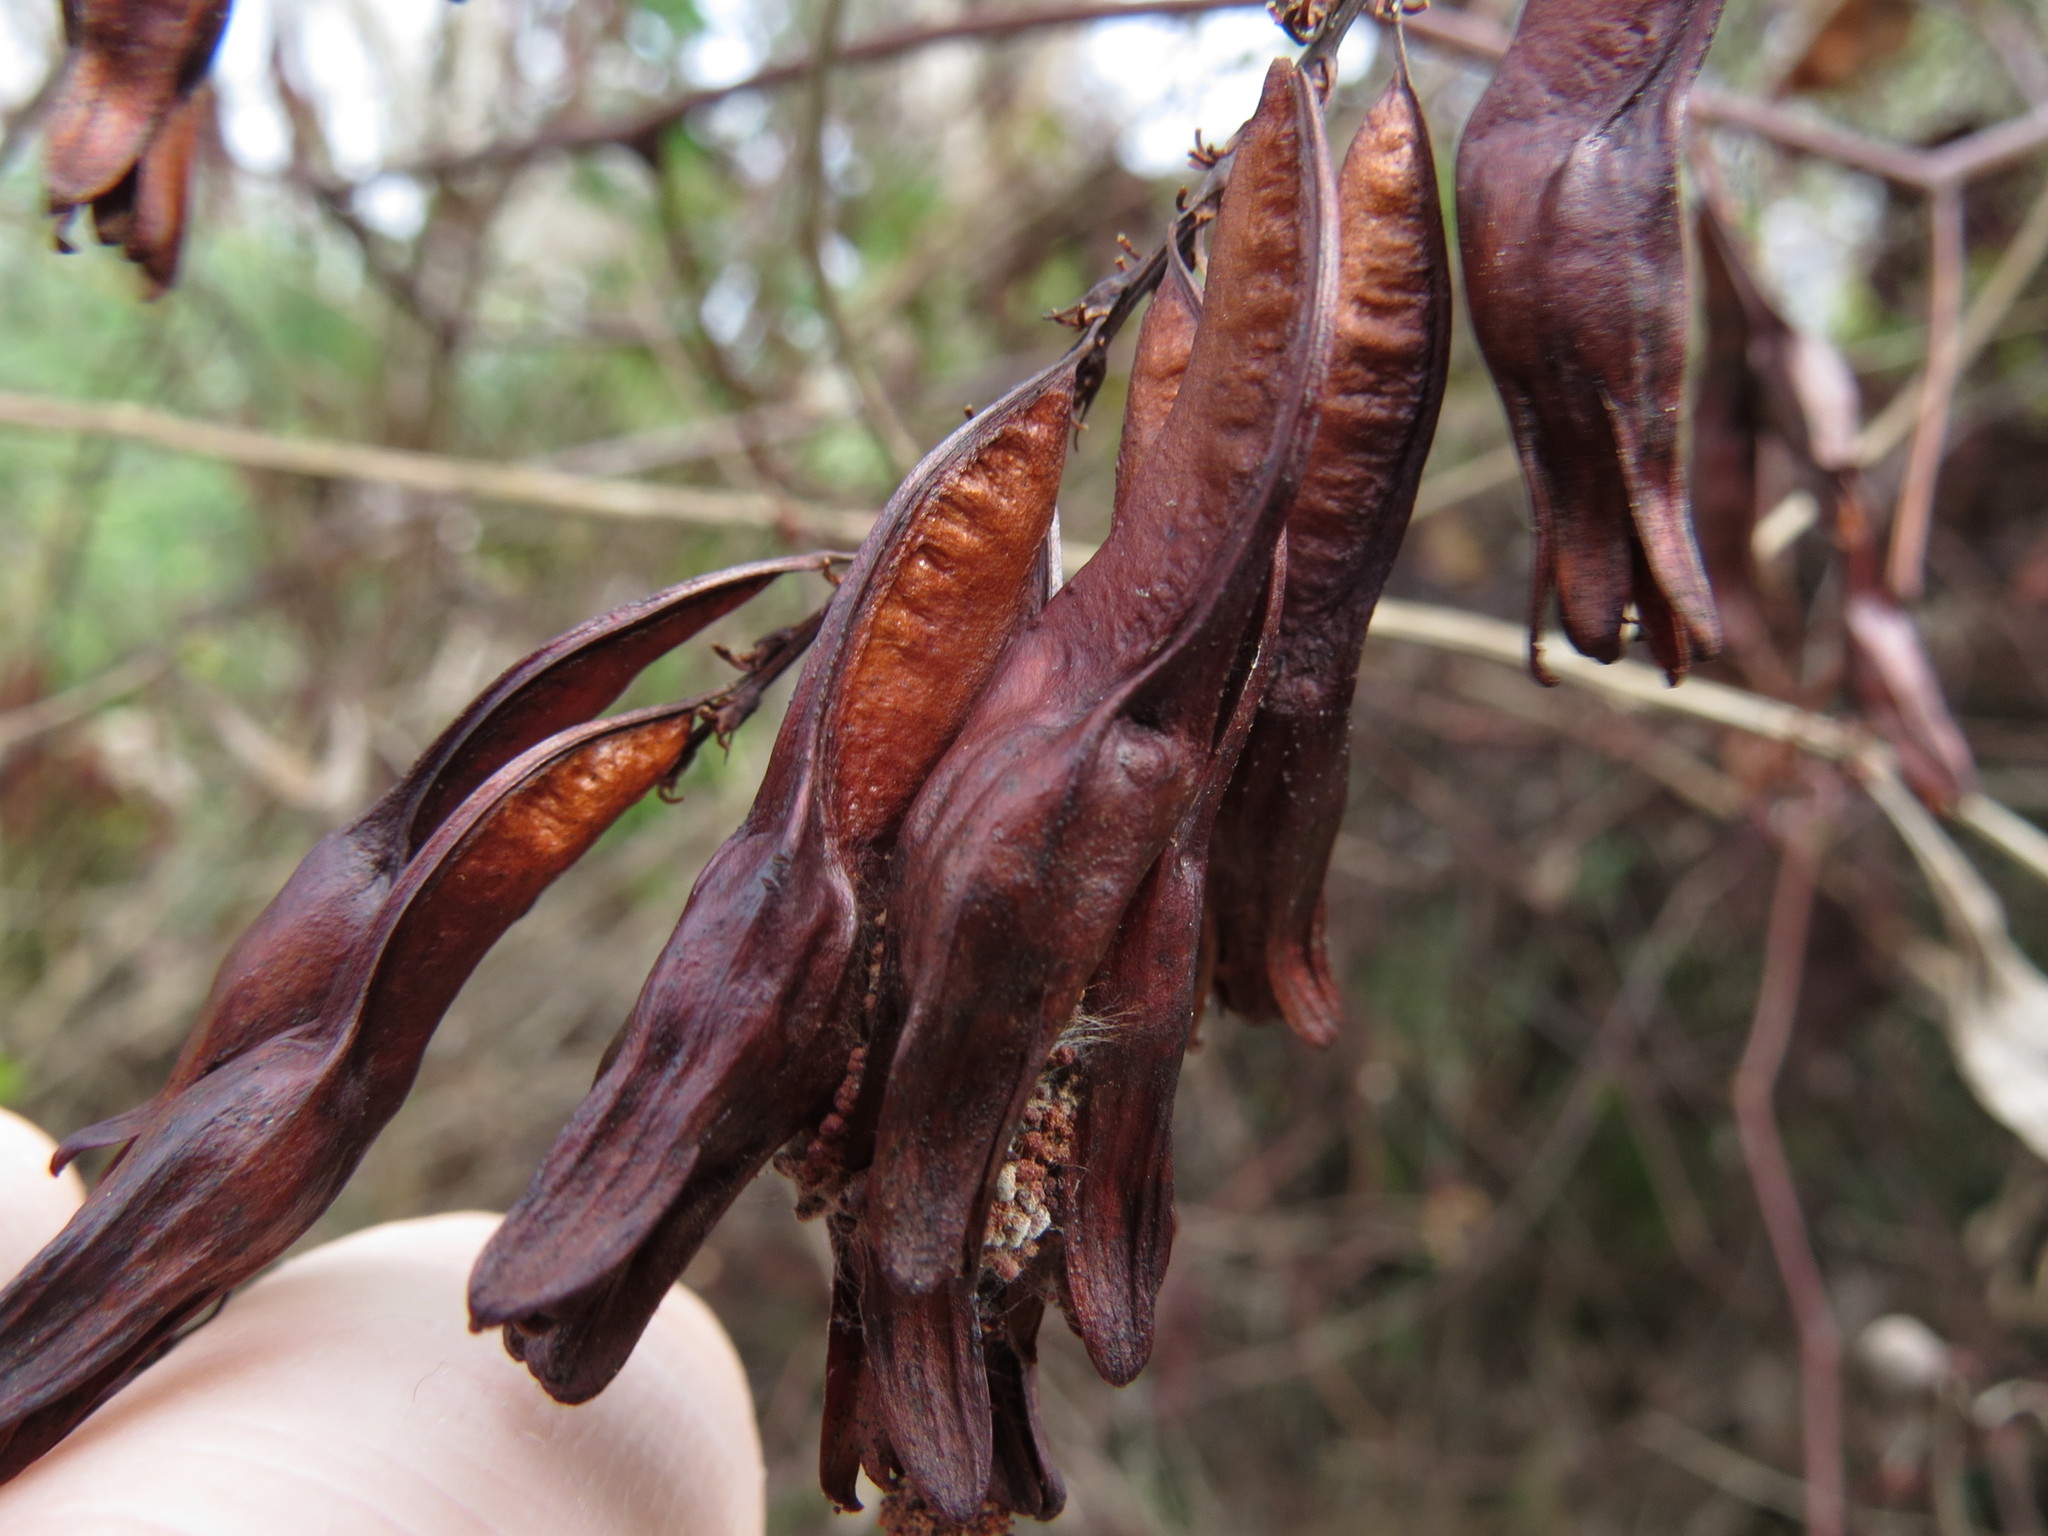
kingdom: Plantae
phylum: Tracheophyta
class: Magnoliopsida
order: Fabales
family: Fabaceae
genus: Cercis
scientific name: Cercis canadensis
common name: Eastern redbud
